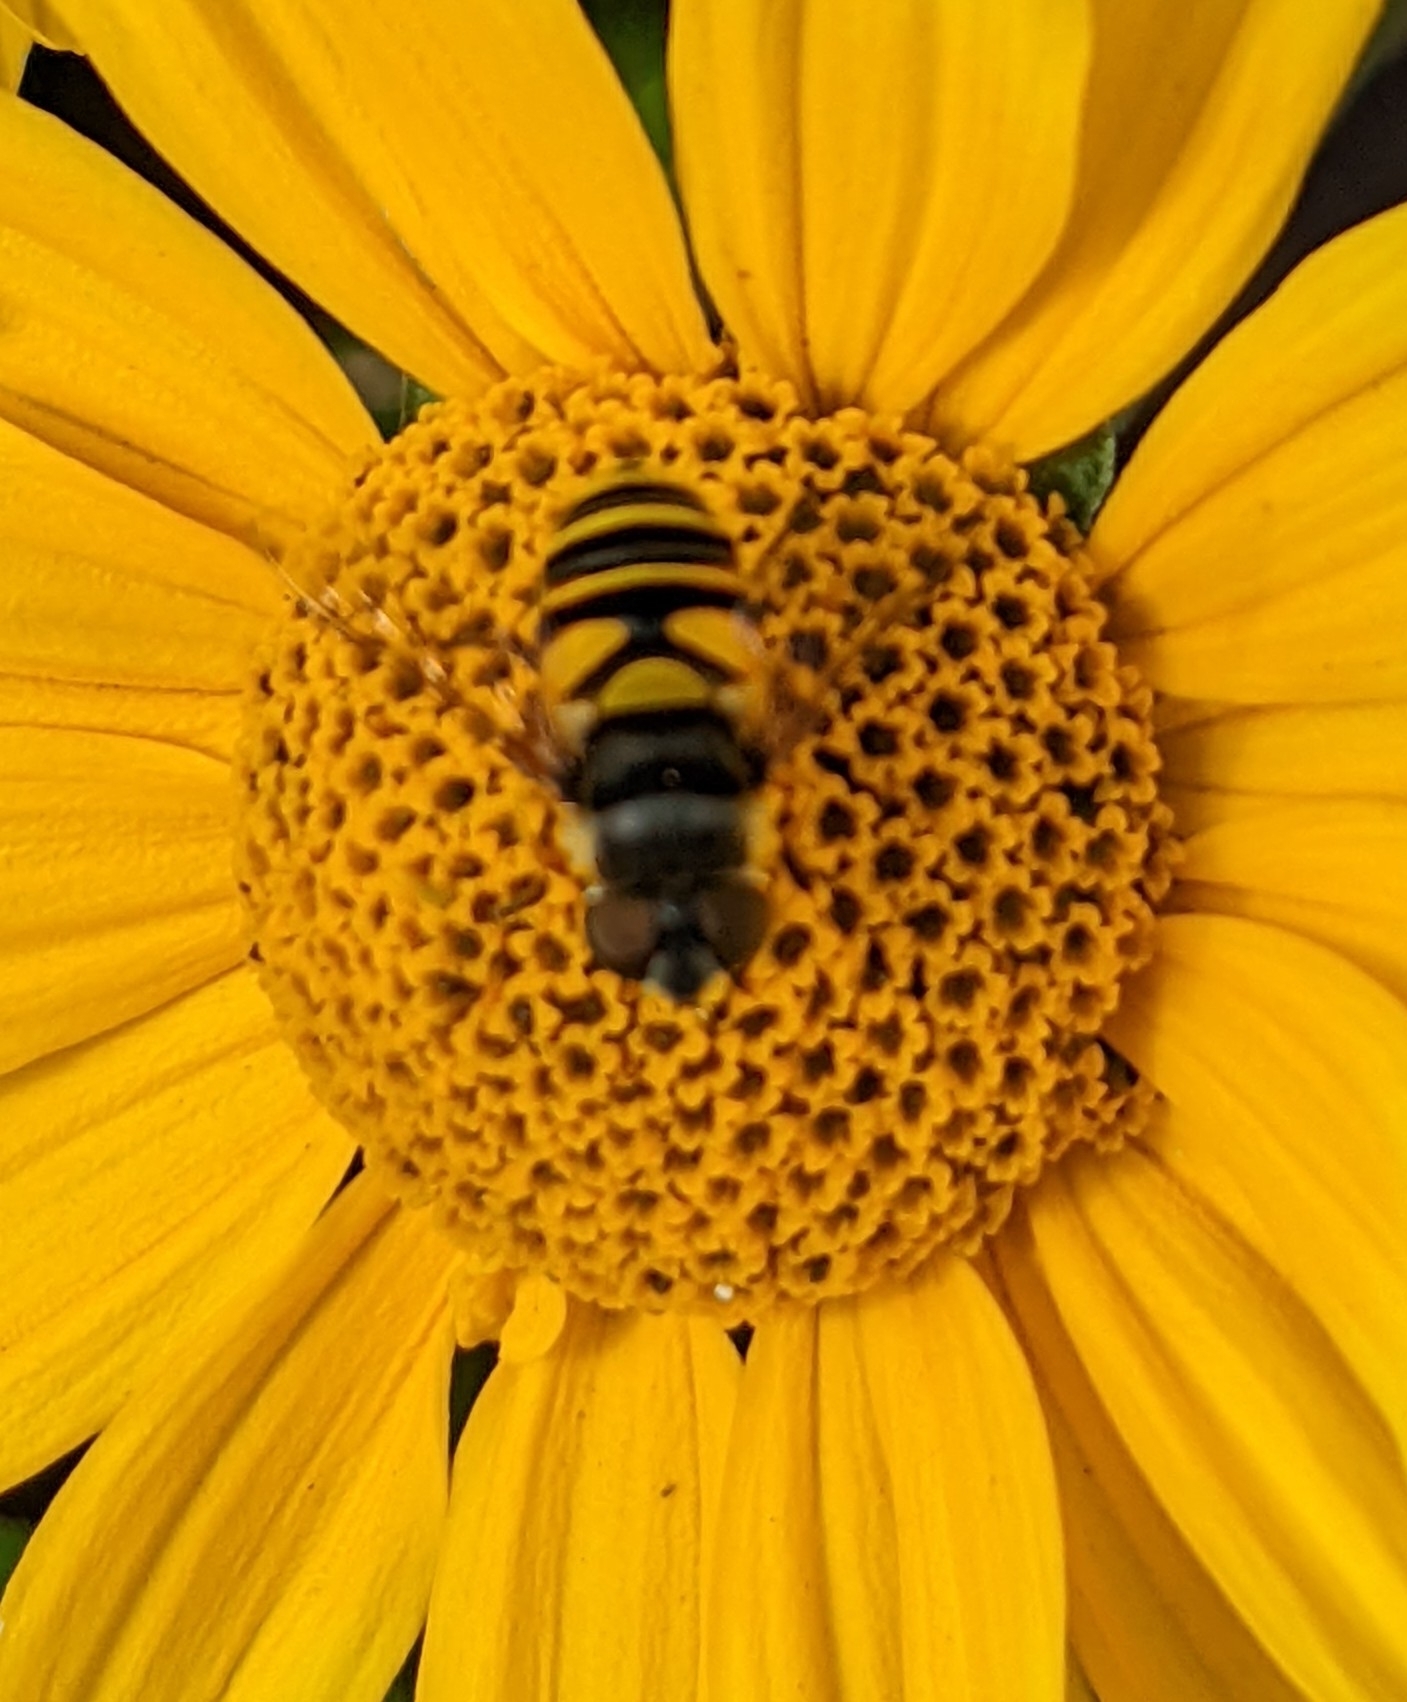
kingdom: Animalia
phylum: Arthropoda
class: Insecta
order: Diptera
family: Syrphidae
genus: Eristalis
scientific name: Eristalis transversa
